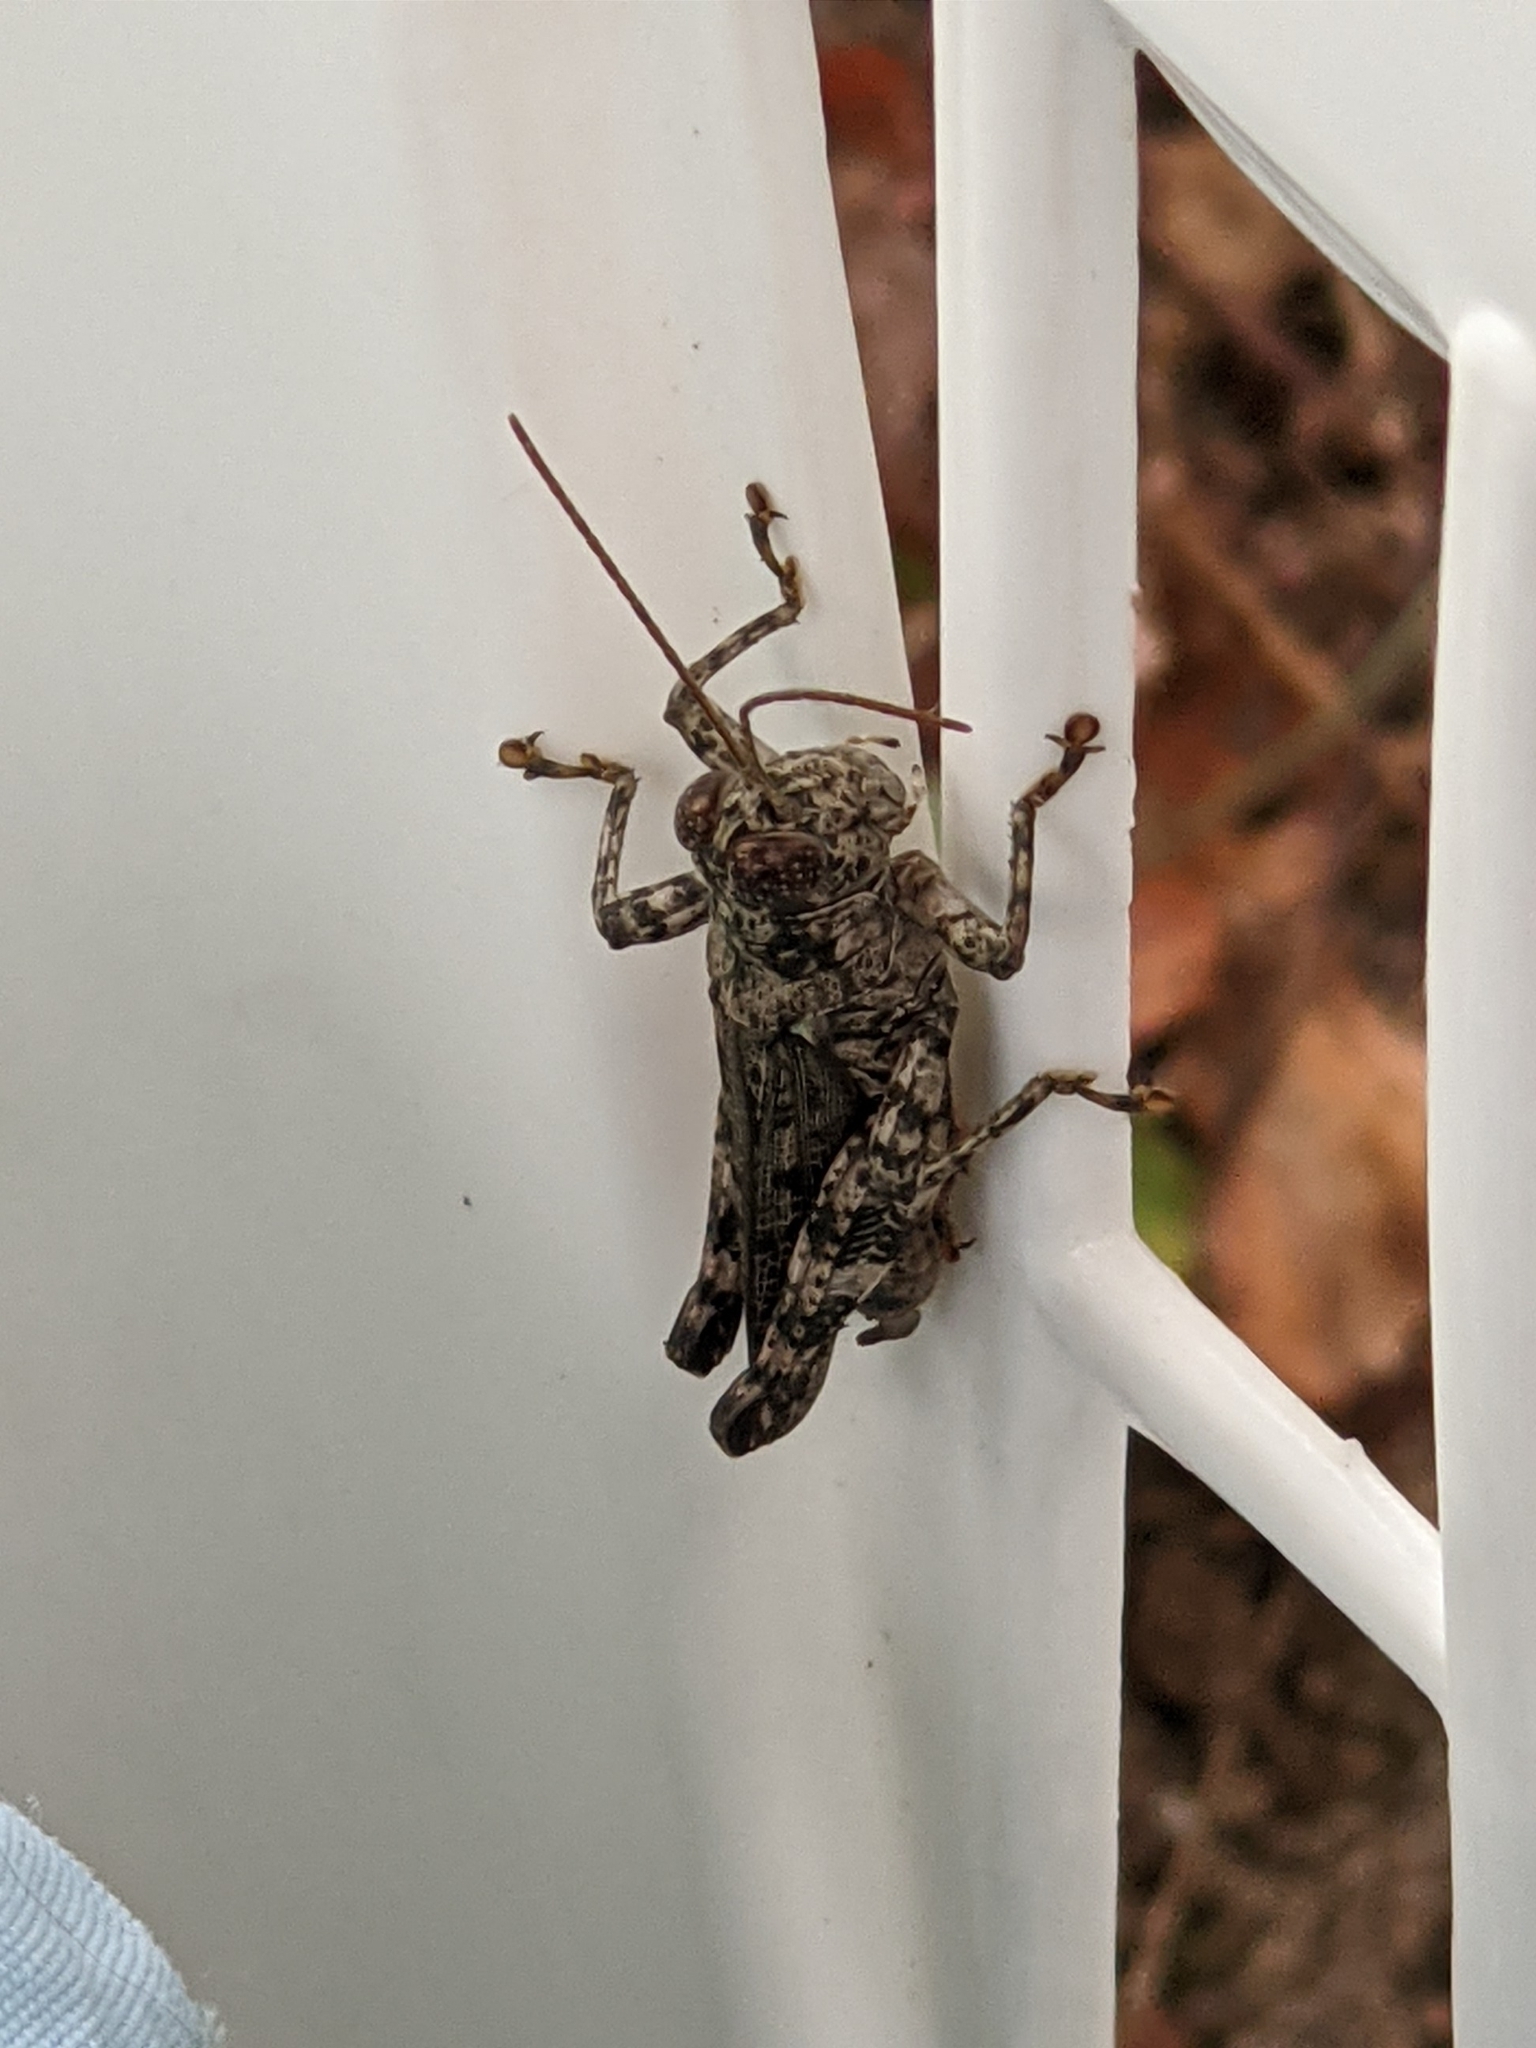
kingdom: Animalia
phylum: Arthropoda
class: Insecta
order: Orthoptera
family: Acrididae
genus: Melanoplus
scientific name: Melanoplus punctulatus
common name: Pine-tree spur-throat grasshopper
